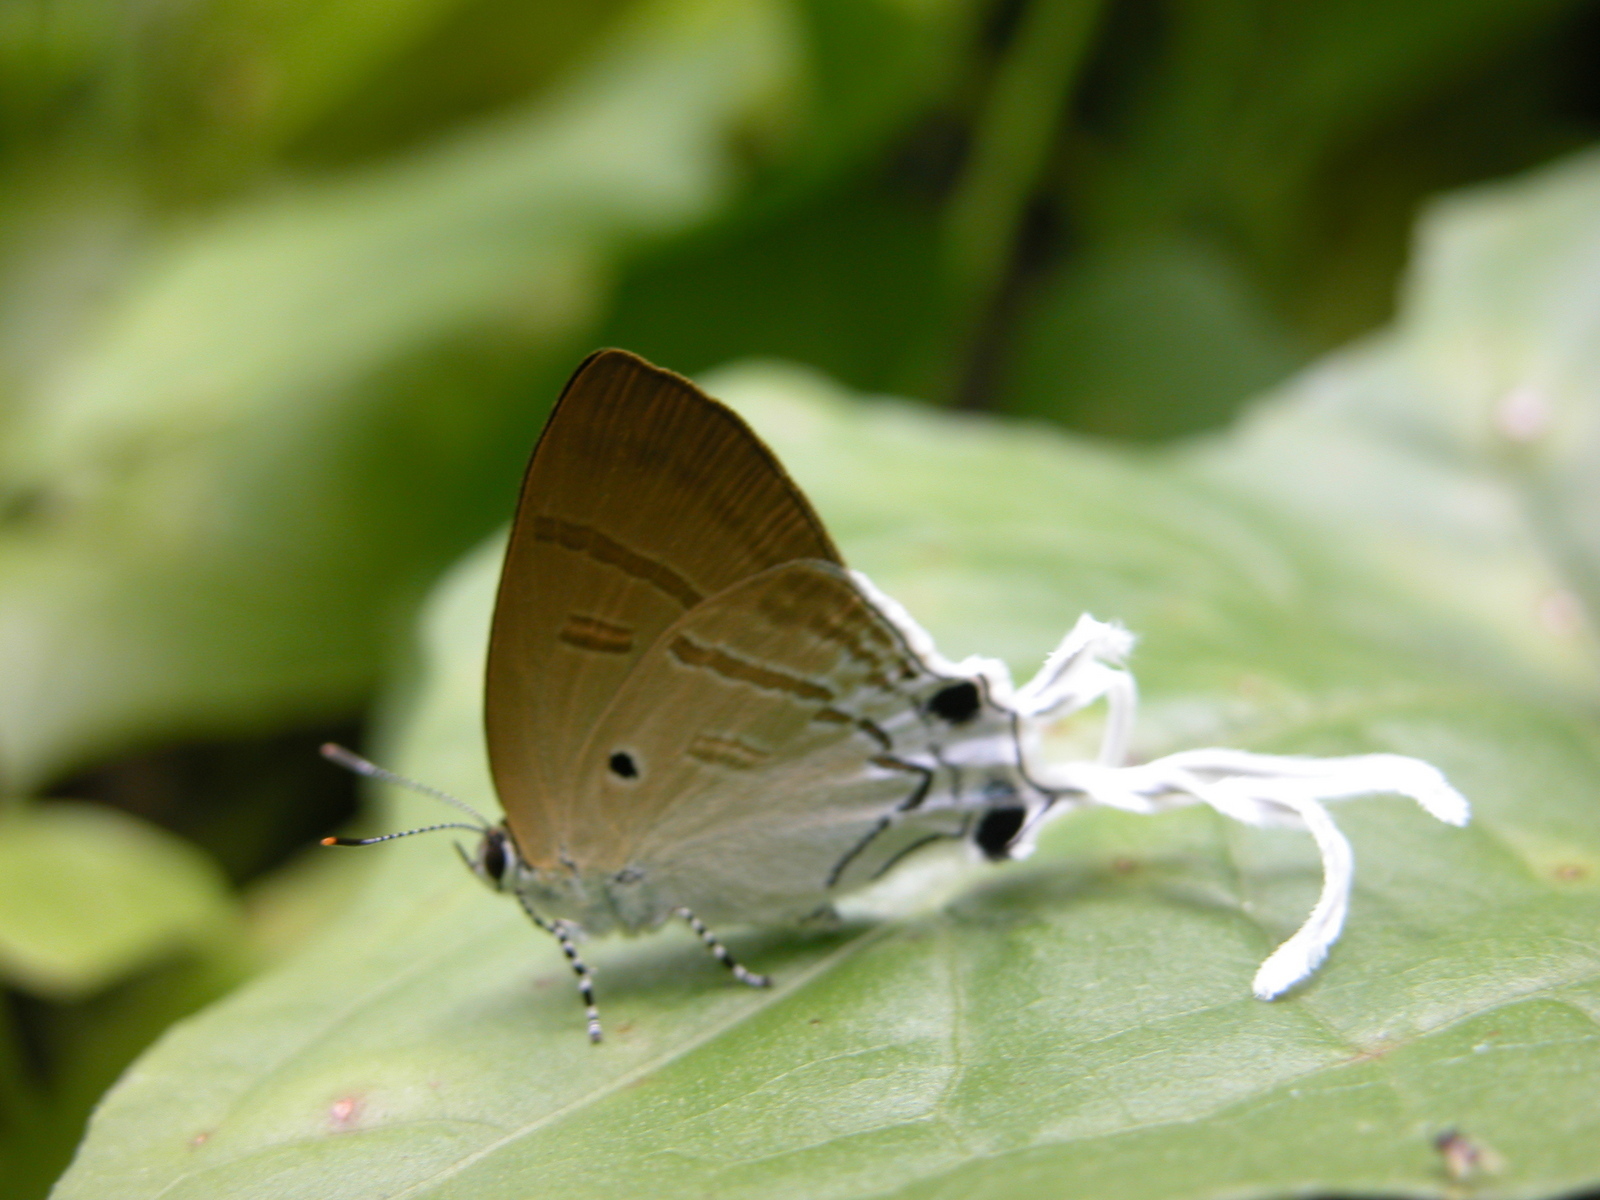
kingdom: Animalia
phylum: Arthropoda
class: Insecta
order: Lepidoptera
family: Lycaenidae
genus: Zeltus
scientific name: Zeltus amasa
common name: Fluffy tit
